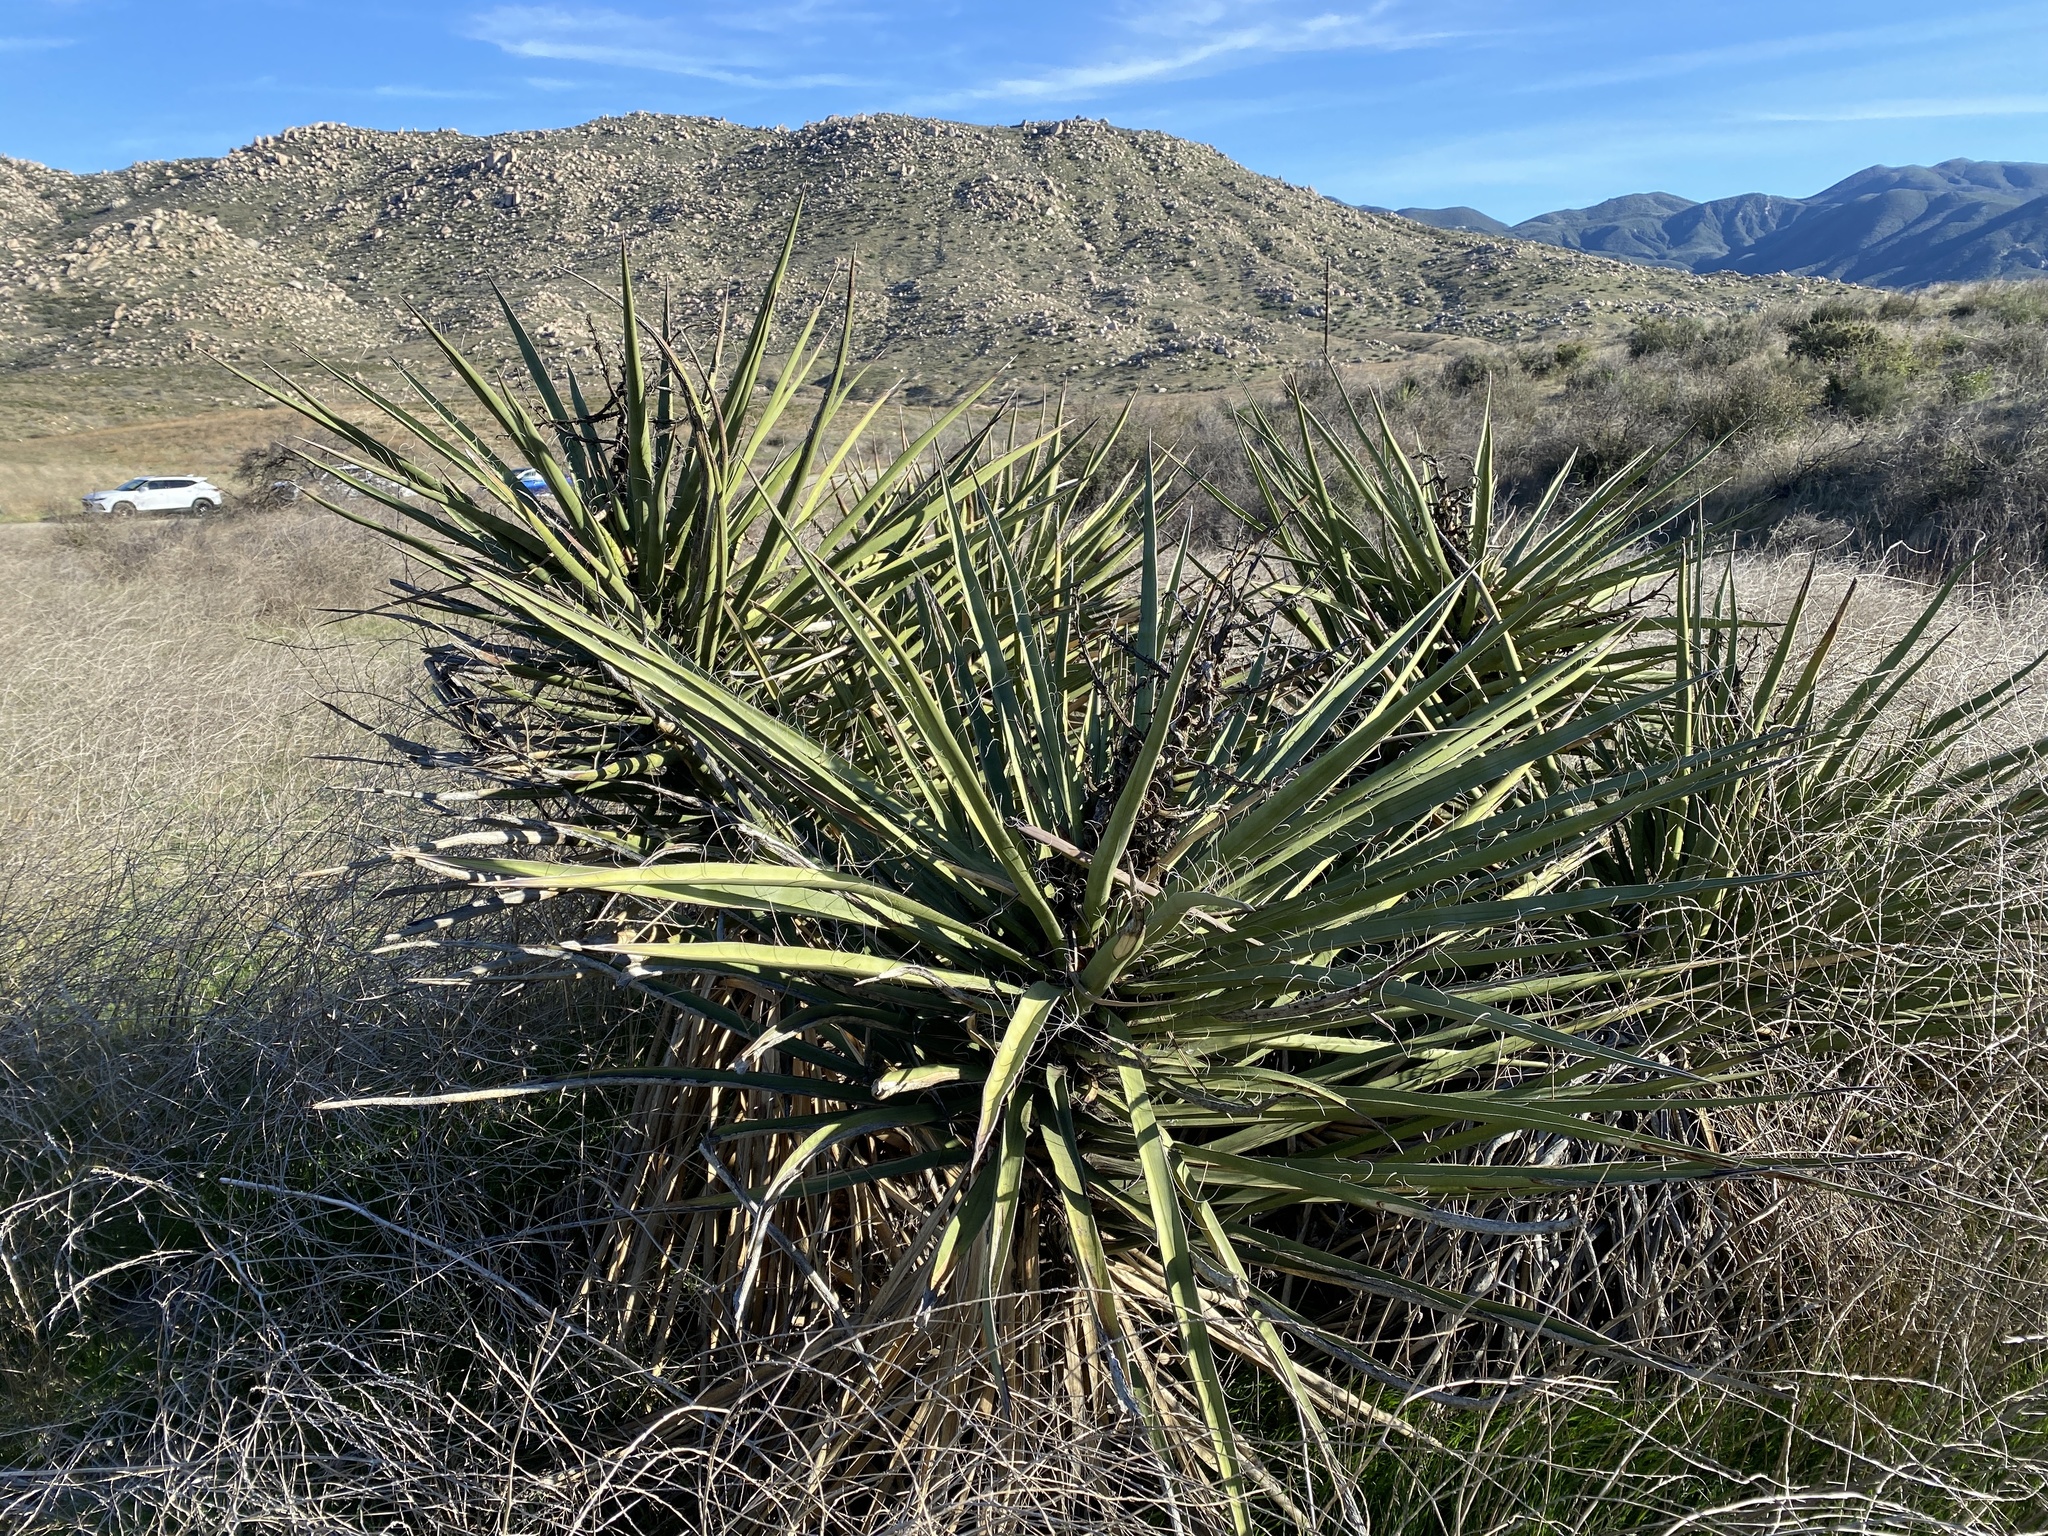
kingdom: Plantae
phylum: Tracheophyta
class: Liliopsida
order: Asparagales
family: Asparagaceae
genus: Yucca
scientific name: Yucca schidigera
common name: Mojave yucca
